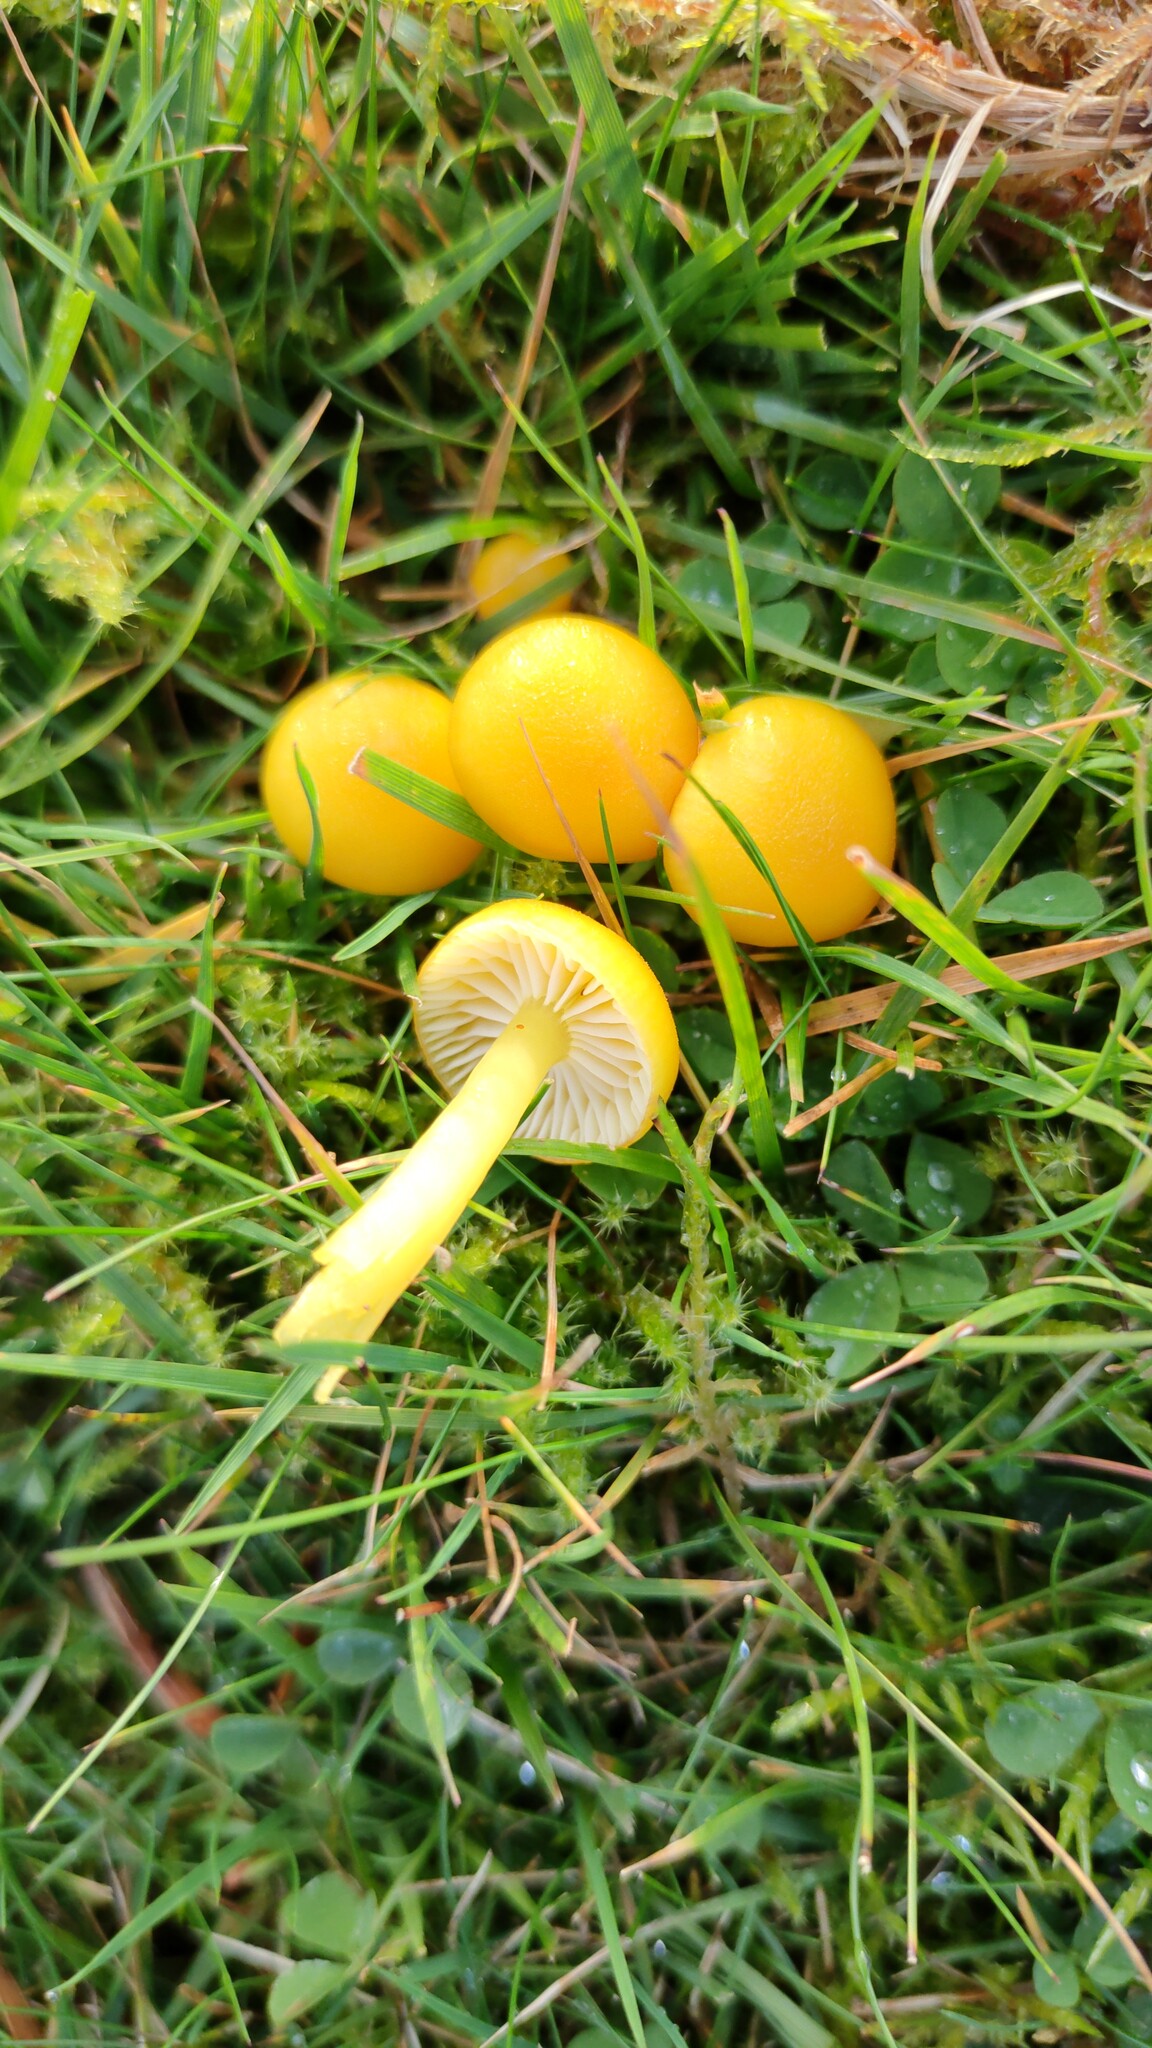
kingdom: Fungi
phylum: Basidiomycota
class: Agaricomycetes
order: Agaricales
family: Hygrophoraceae
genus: Hygrocybe
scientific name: Hygrocybe ceracea
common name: Butter waxcap
